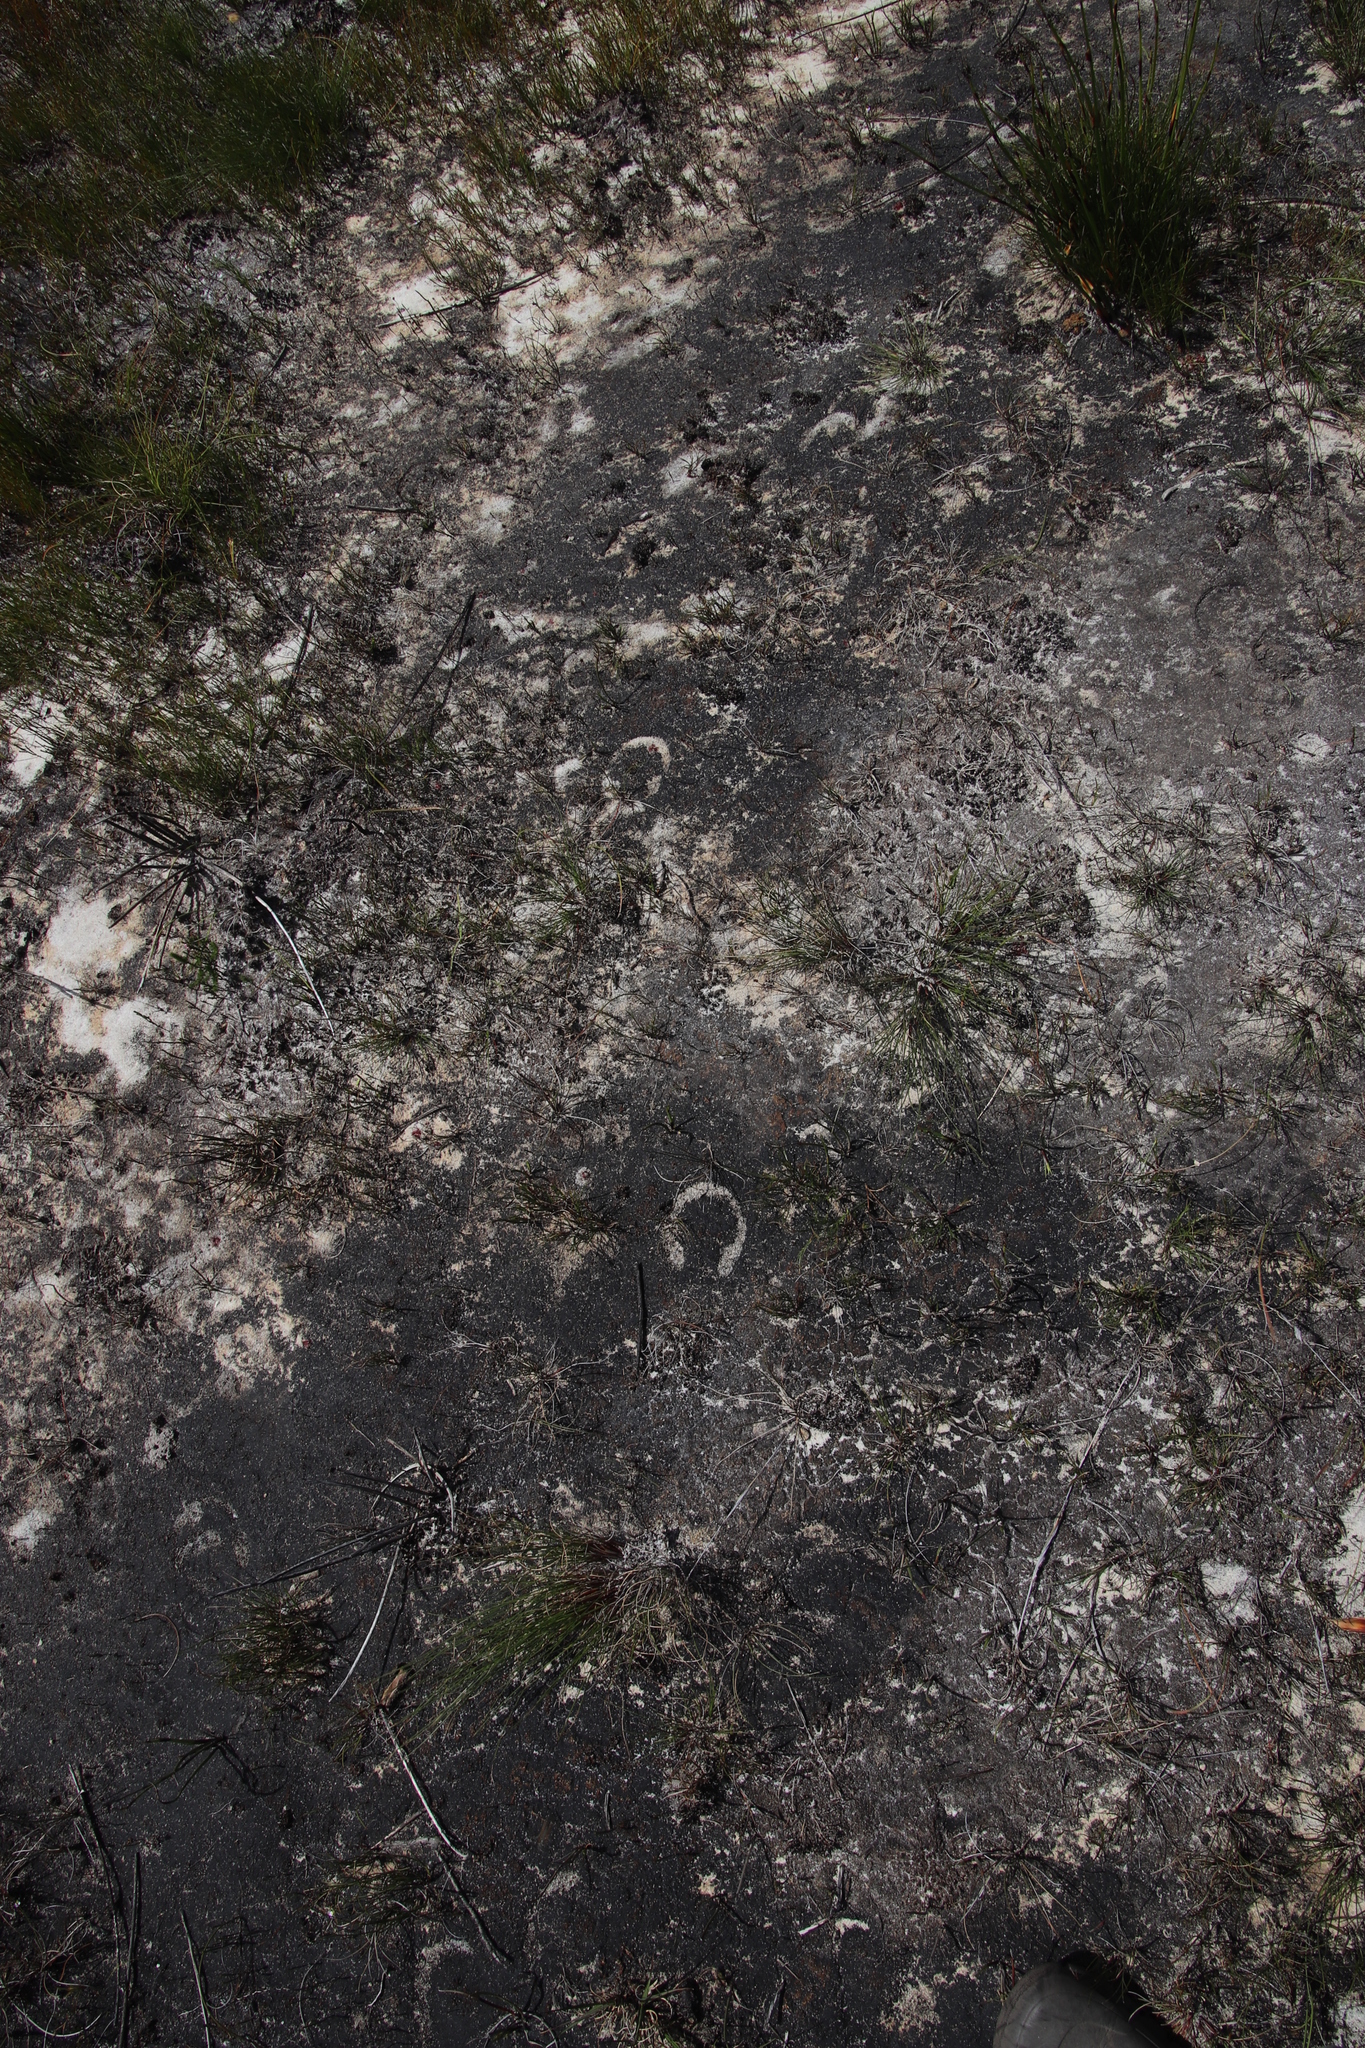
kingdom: Animalia
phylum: Chordata
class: Mammalia
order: Perissodactyla
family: Equidae
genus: Equus
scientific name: Equus zebra
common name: Mountain zebra
